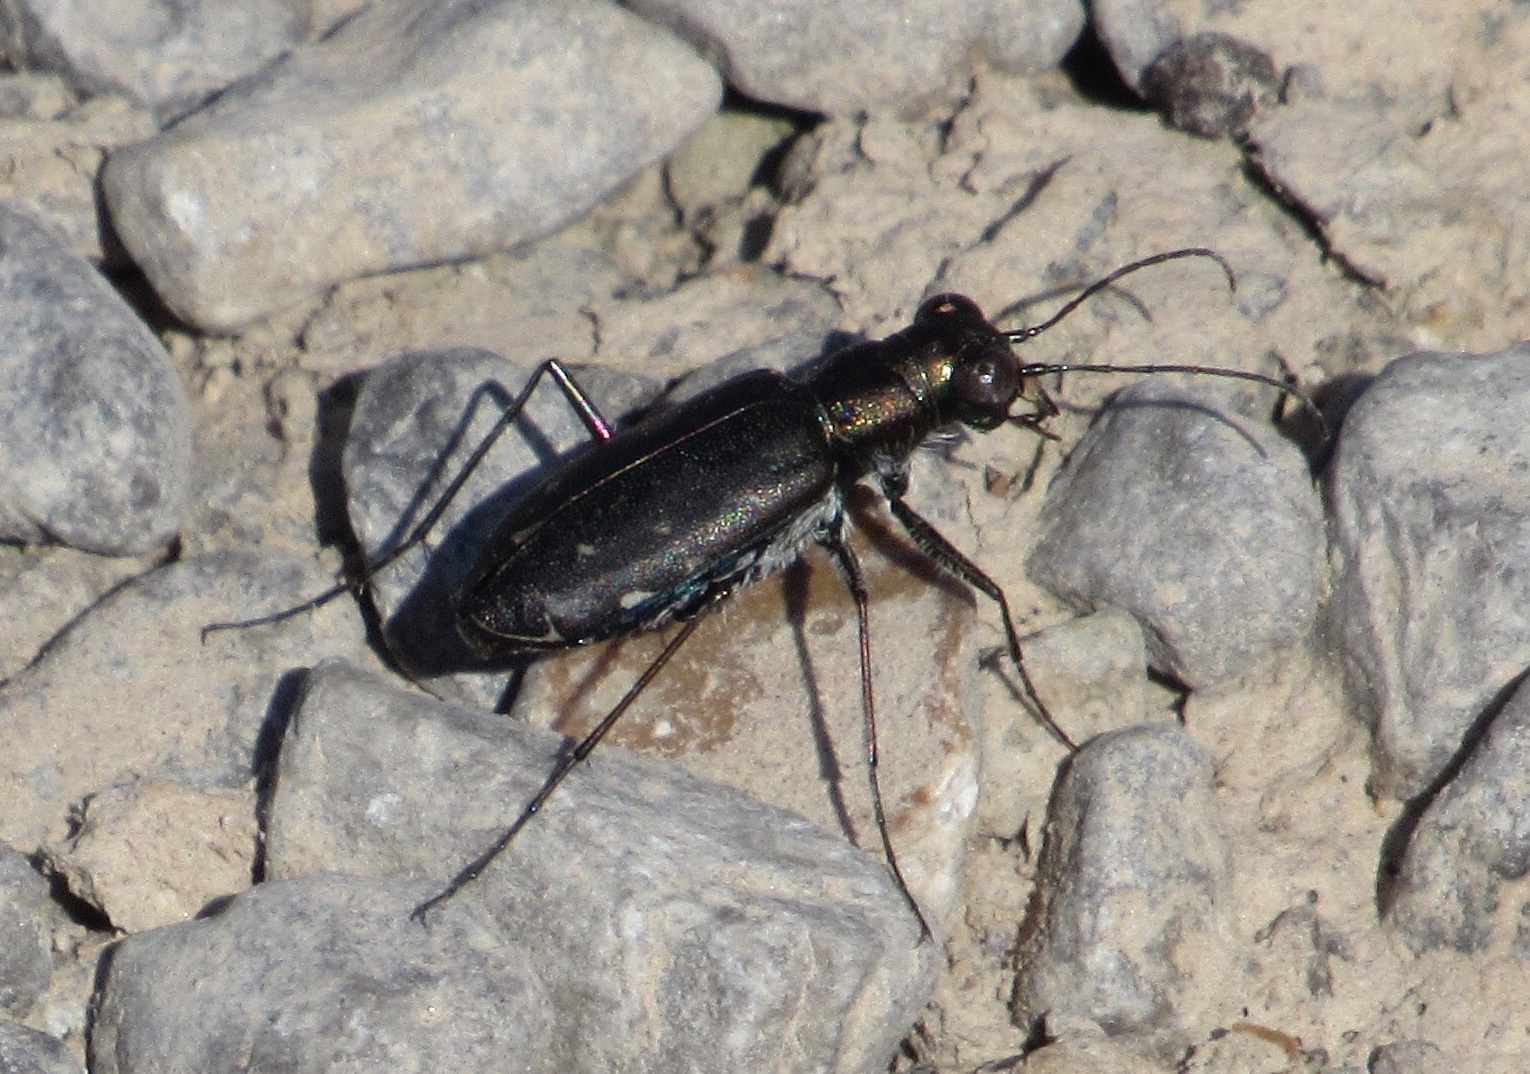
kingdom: Animalia
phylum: Arthropoda
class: Insecta
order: Coleoptera
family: Carabidae
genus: Cicindela
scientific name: Cicindela punctulata
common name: Punctured tiger beetle
